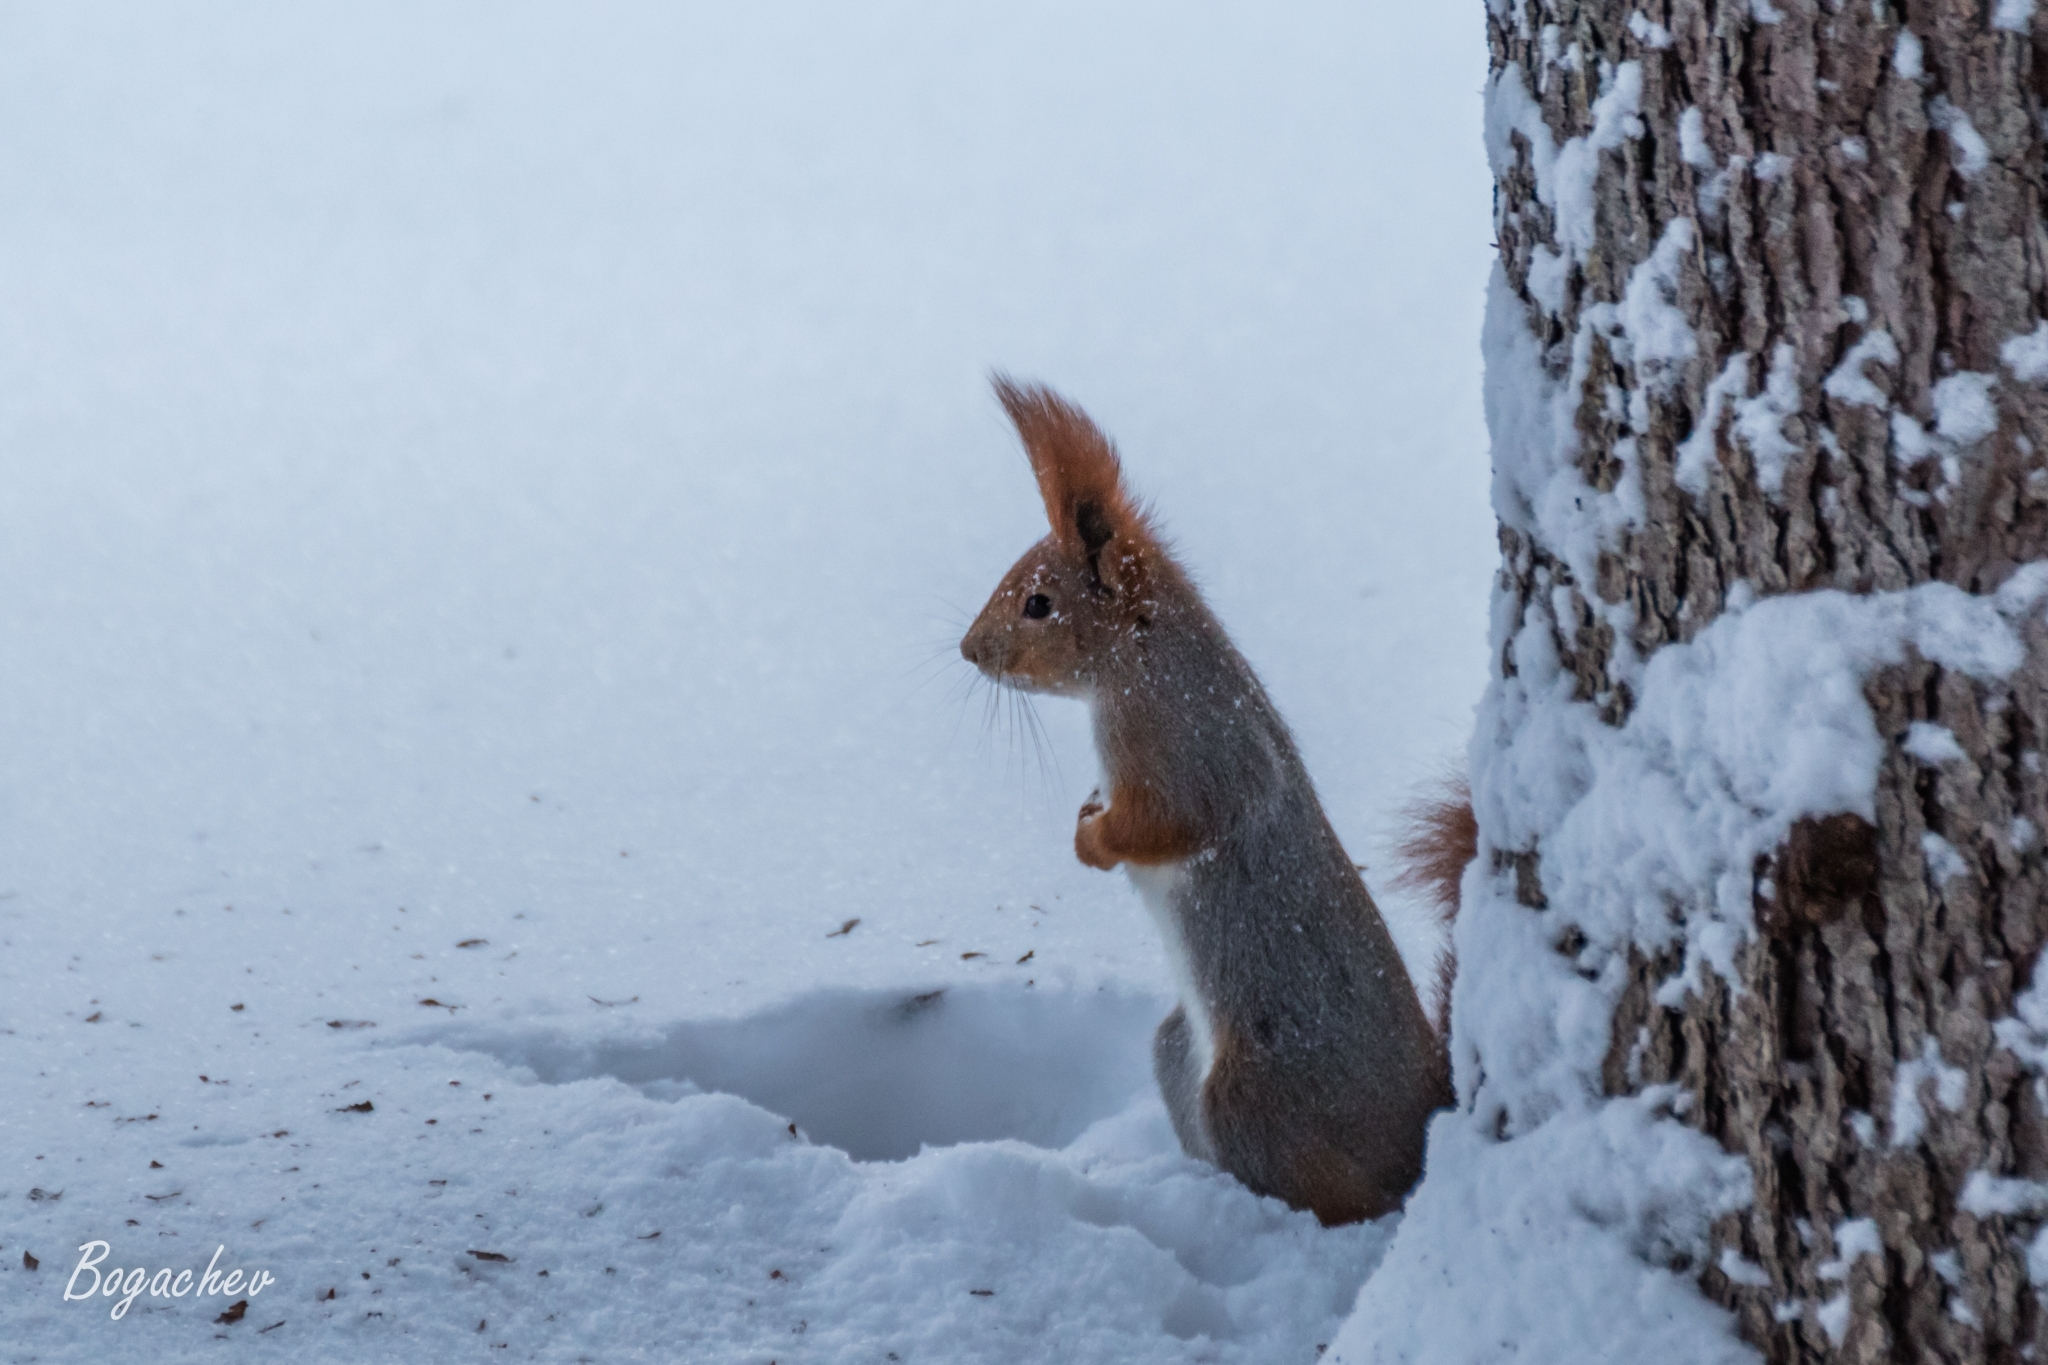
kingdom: Animalia
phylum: Chordata
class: Mammalia
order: Rodentia
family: Sciuridae
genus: Sciurus
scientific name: Sciurus vulgaris
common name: Eurasian red squirrel
